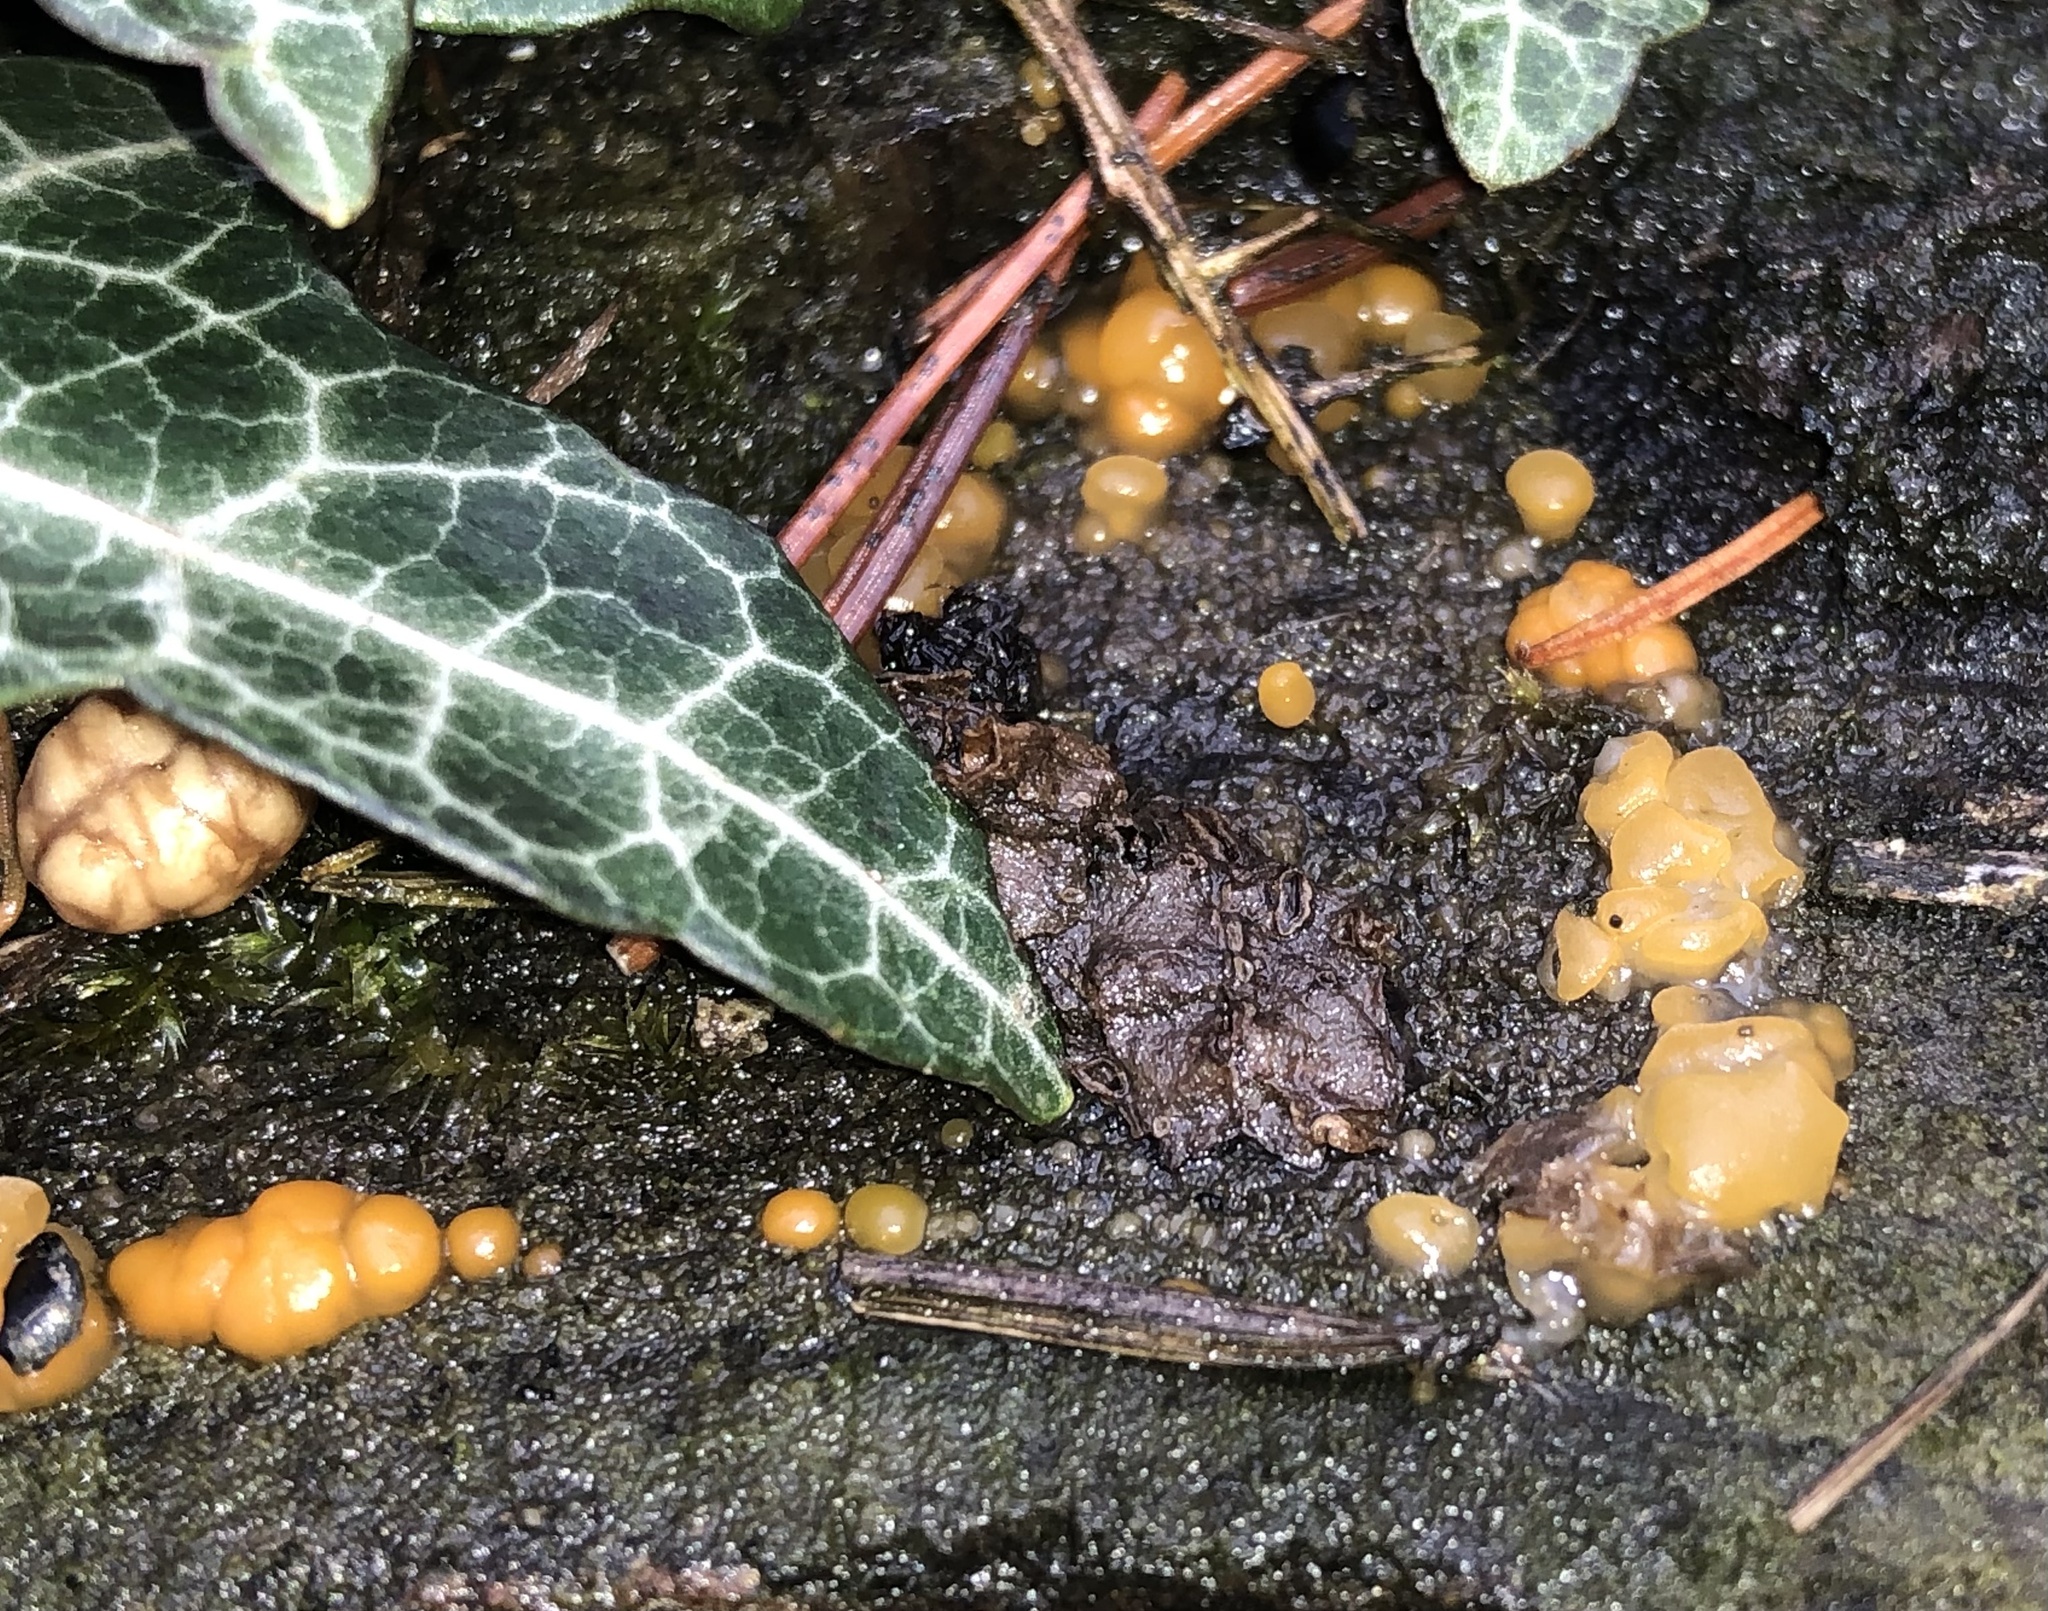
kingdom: Fungi
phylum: Basidiomycota
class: Dacrymycetes
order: Dacrymycetales
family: Dacrymycetaceae
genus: Dacrymyces
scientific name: Dacrymyces stillatus
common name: Common jelly spot
